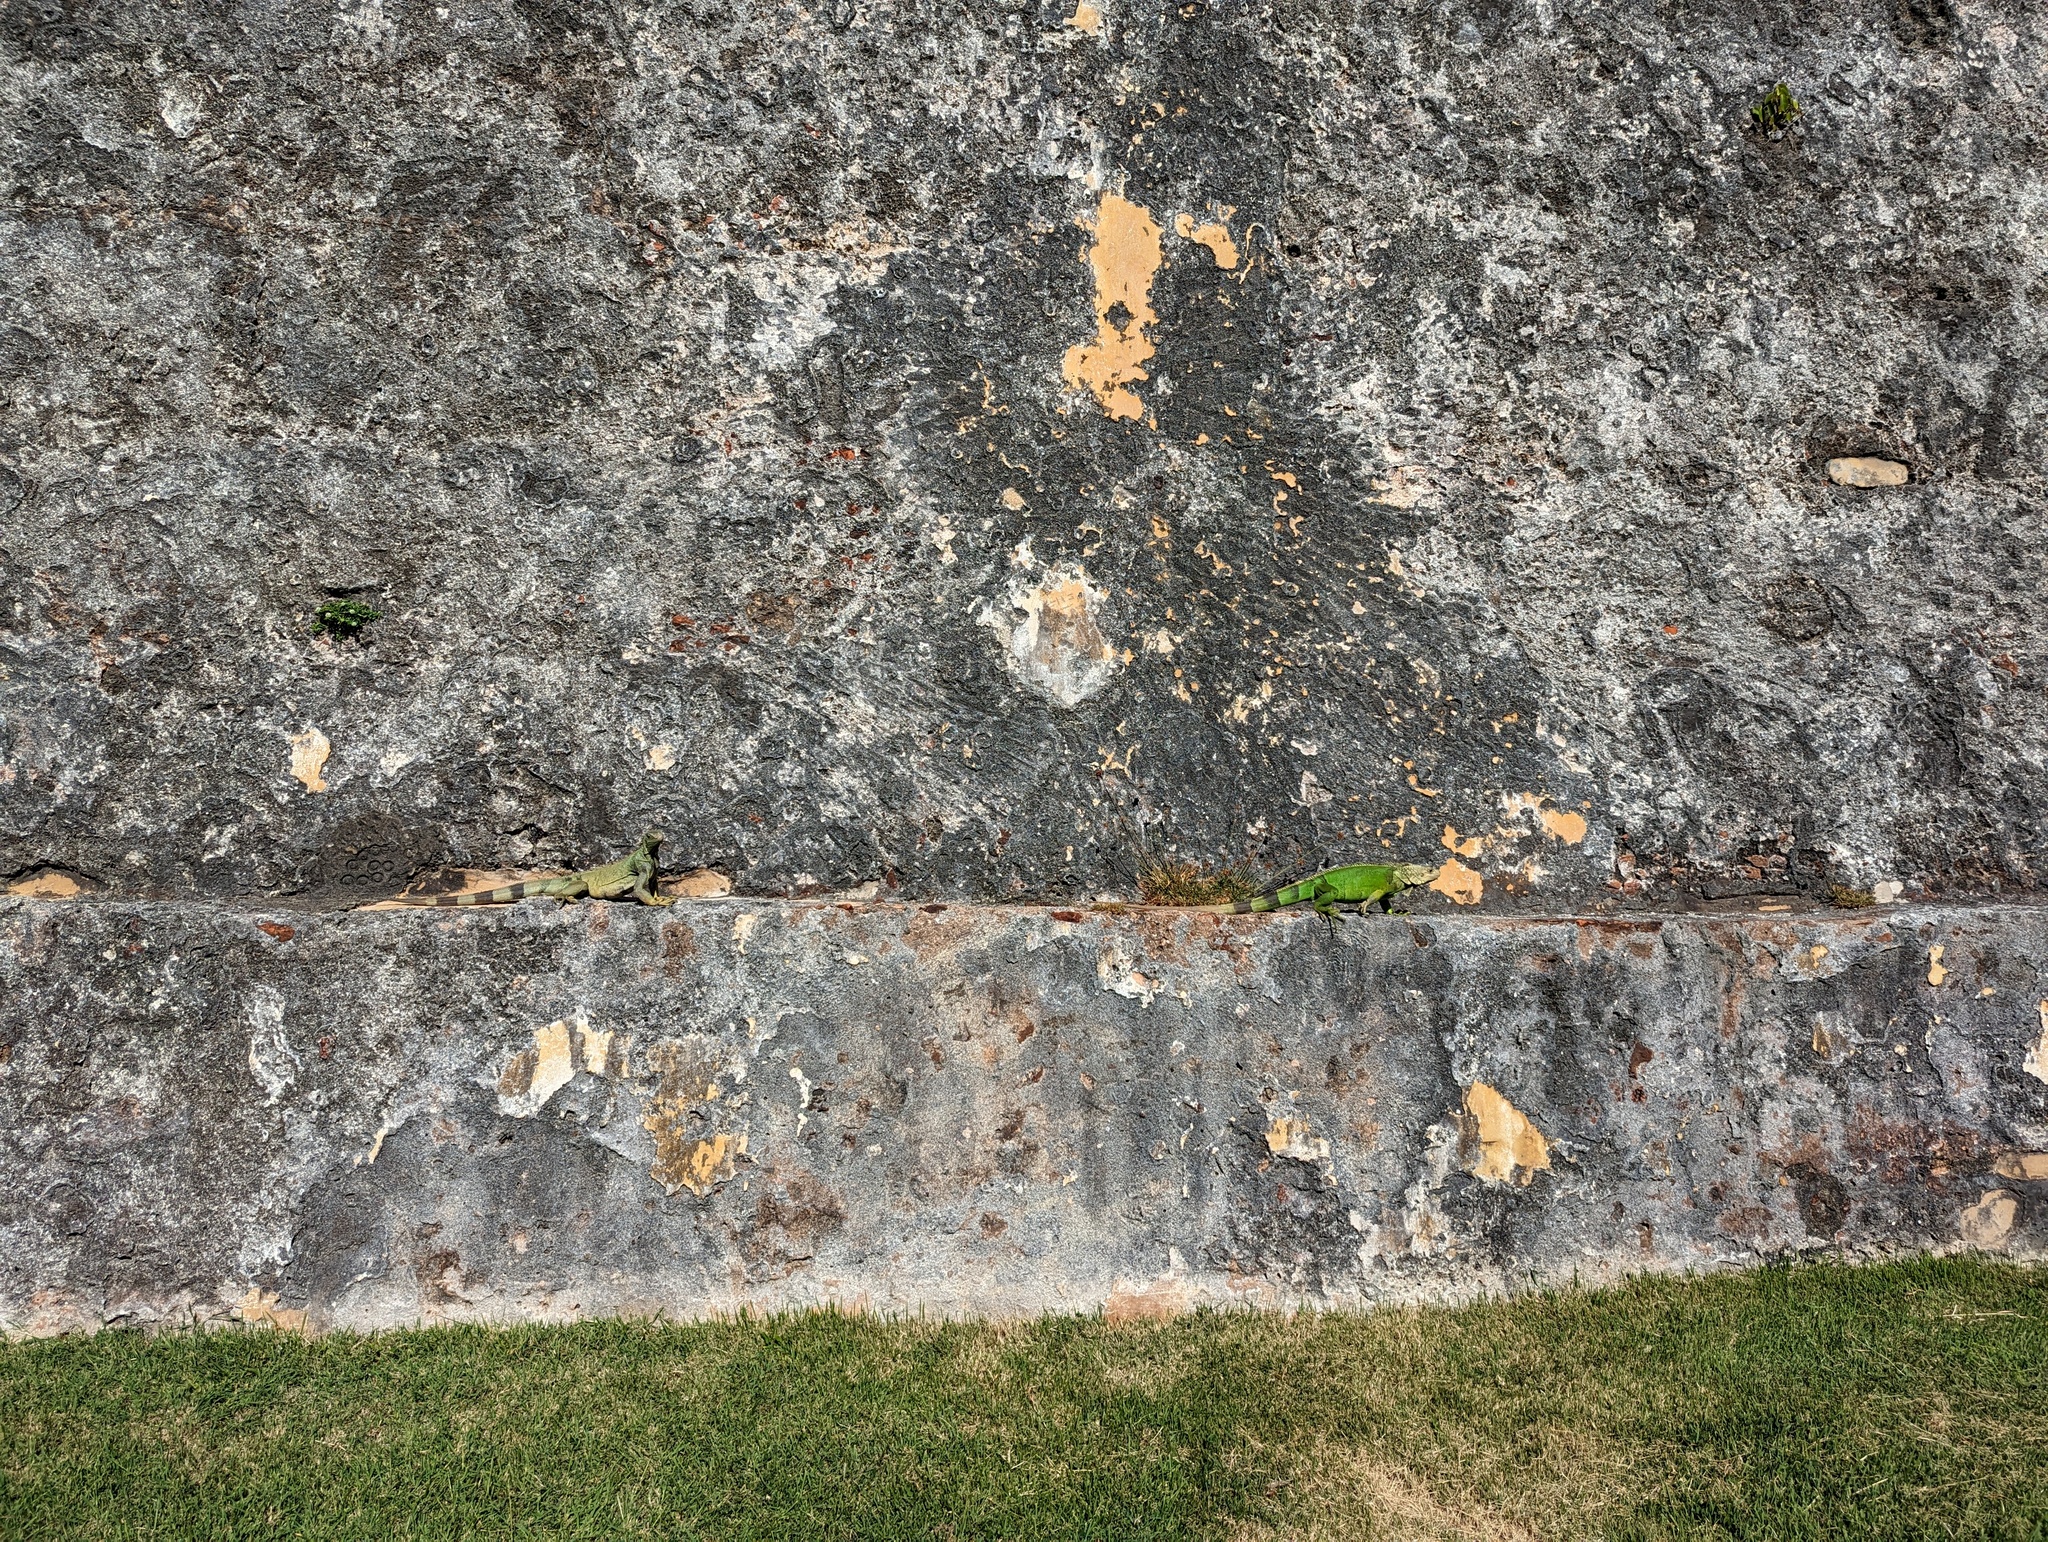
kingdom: Animalia
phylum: Chordata
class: Squamata
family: Iguanidae
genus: Iguana
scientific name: Iguana iguana
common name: Green iguana
